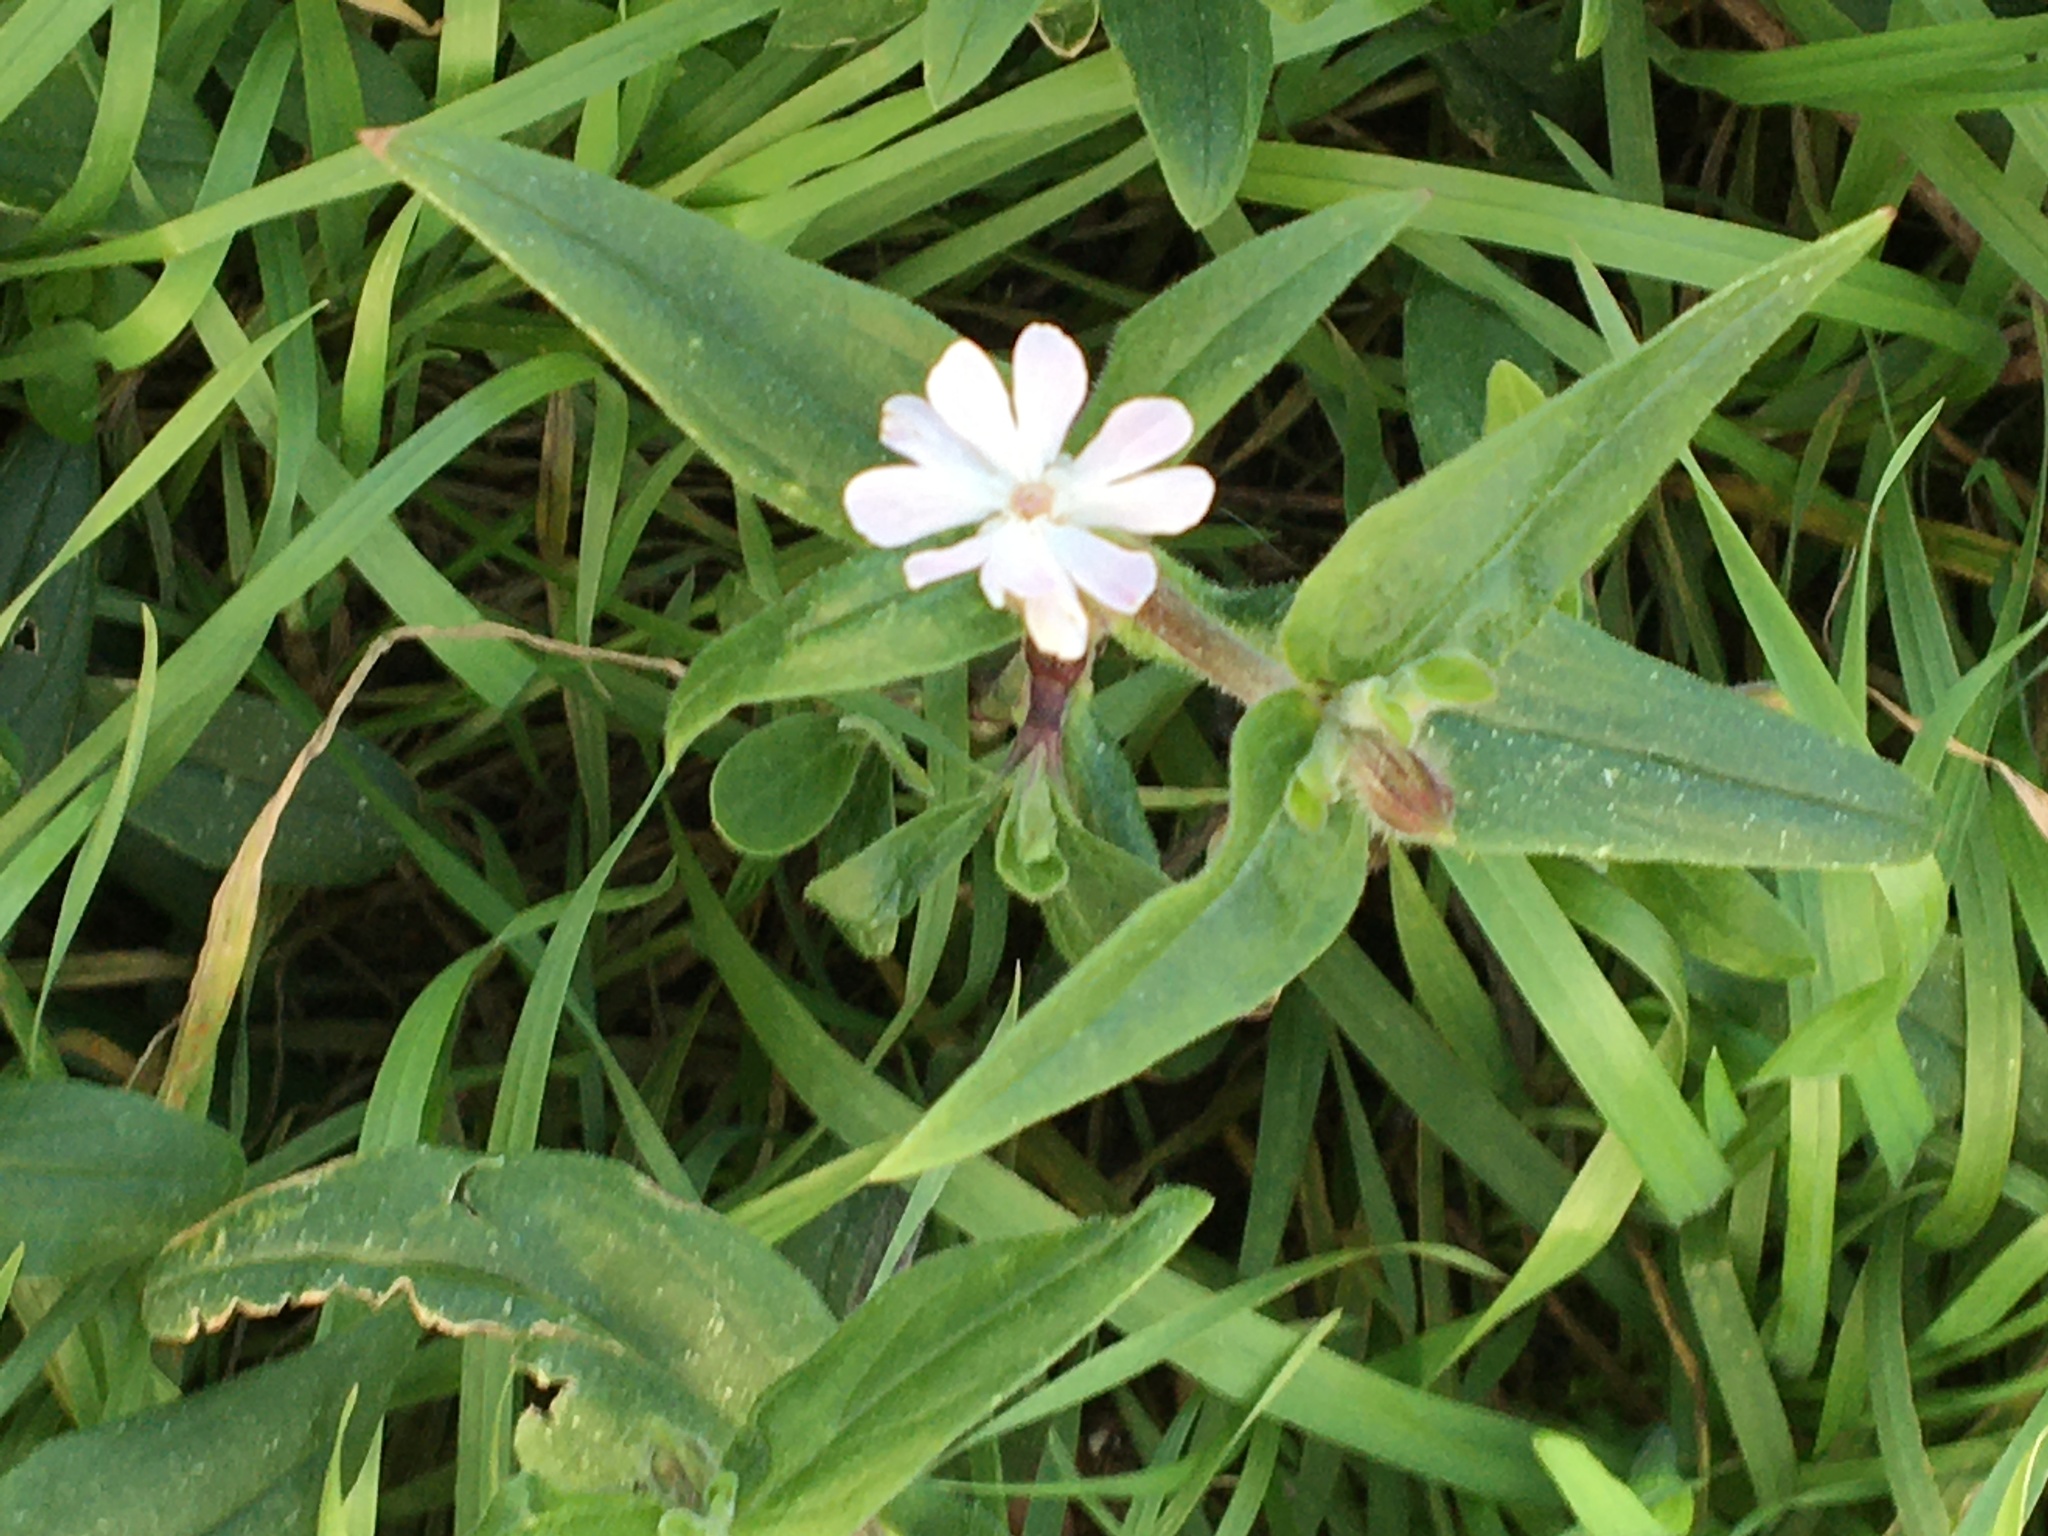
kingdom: Plantae
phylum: Tracheophyta
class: Magnoliopsida
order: Caryophyllales
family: Caryophyllaceae
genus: Silene
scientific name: Silene latifolia
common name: White campion
